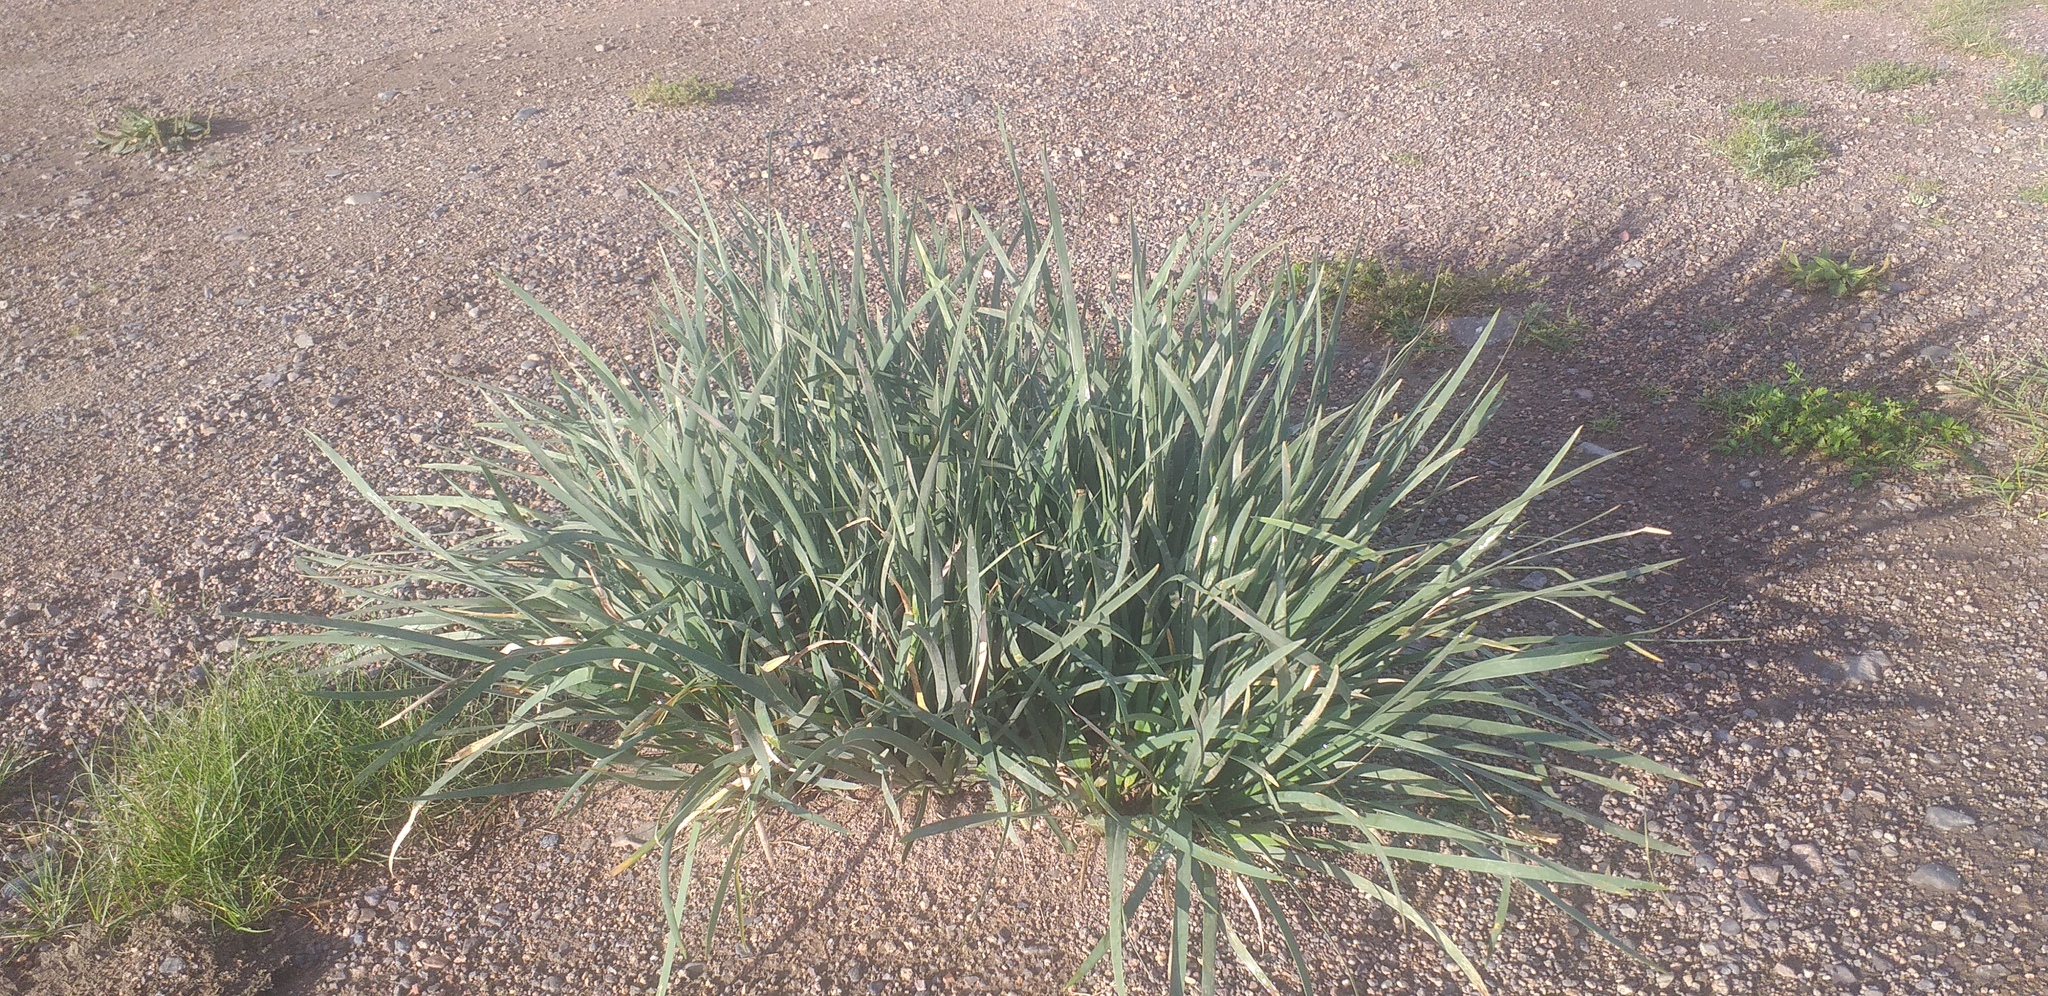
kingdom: Plantae
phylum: Tracheophyta
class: Liliopsida
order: Asparagales
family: Iridaceae
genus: Iris
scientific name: Iris lactea
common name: White-flower chinese iris
